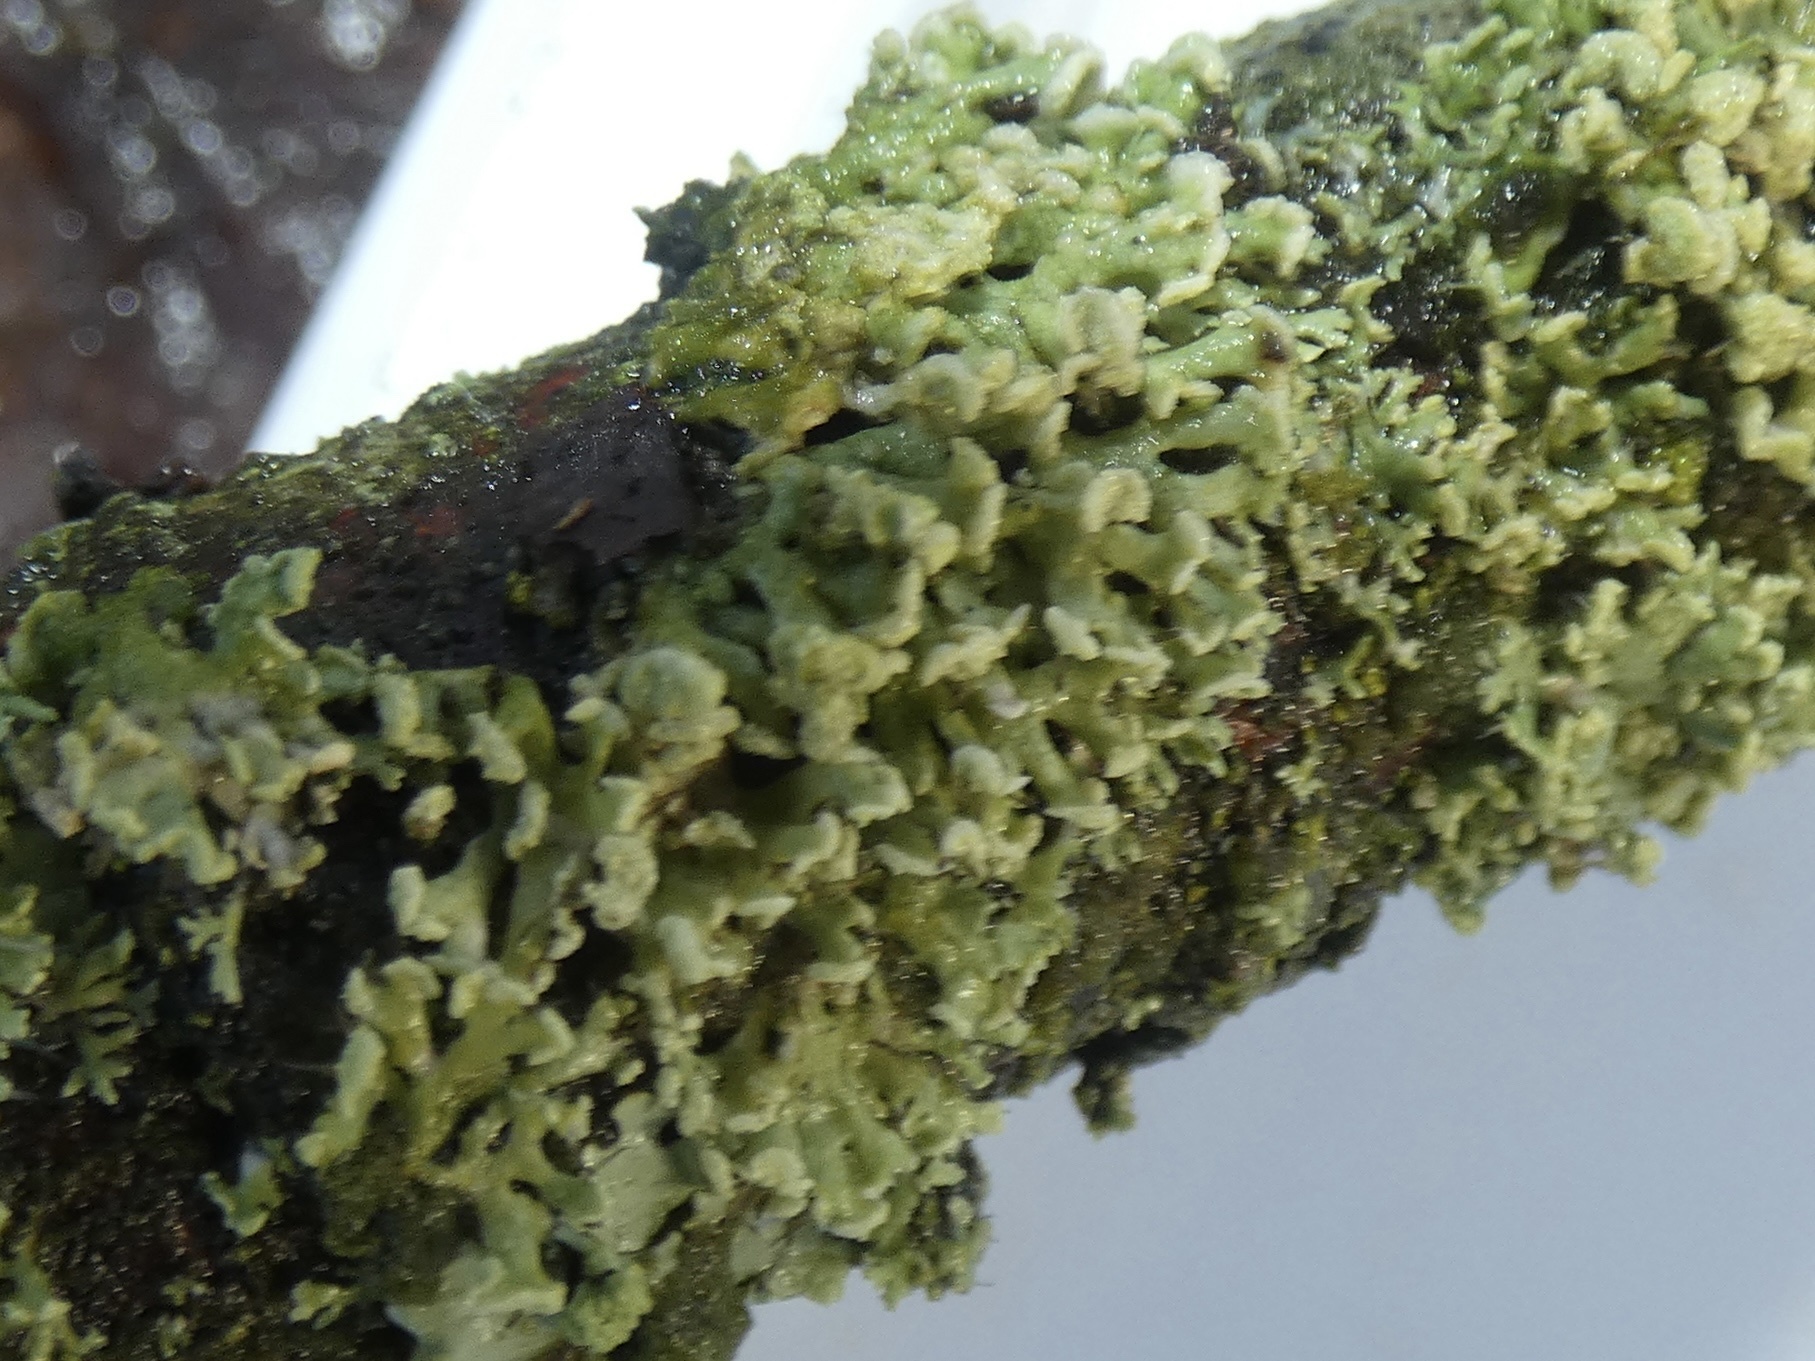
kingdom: Fungi
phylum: Ascomycota
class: Lecanoromycetes
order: Caliciales
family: Physciaceae
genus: Physcia
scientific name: Physcia tenella
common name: Fringed rosette lichen
